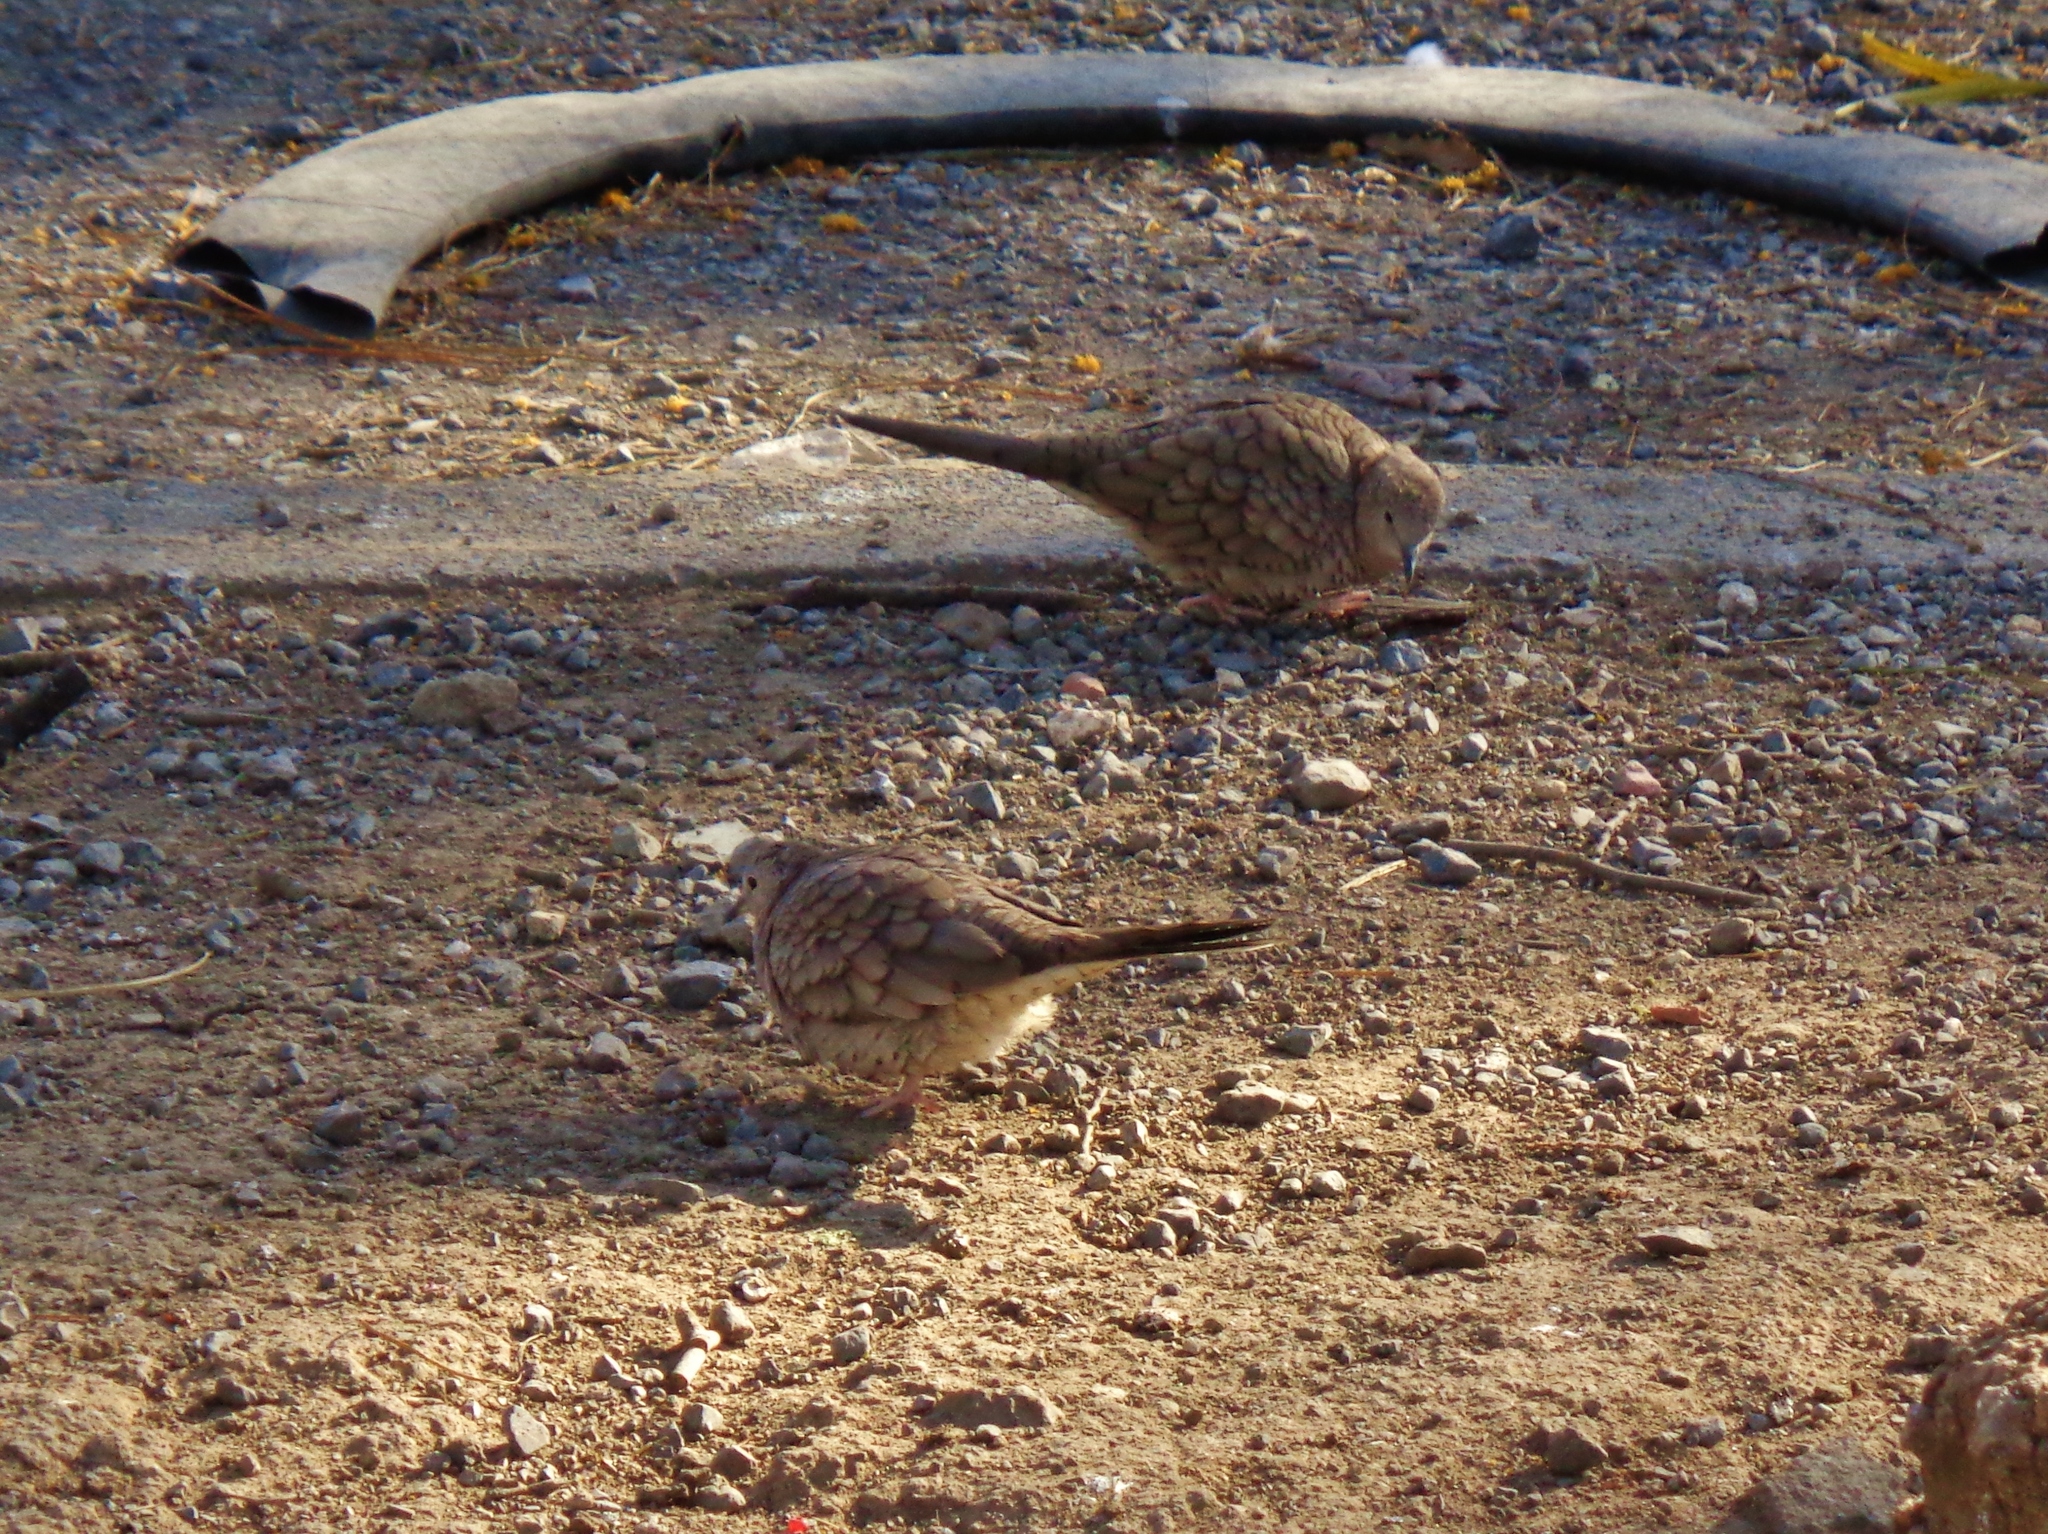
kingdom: Animalia
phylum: Chordata
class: Aves
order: Columbiformes
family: Columbidae
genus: Columbina
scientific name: Columbina inca
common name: Inca dove
